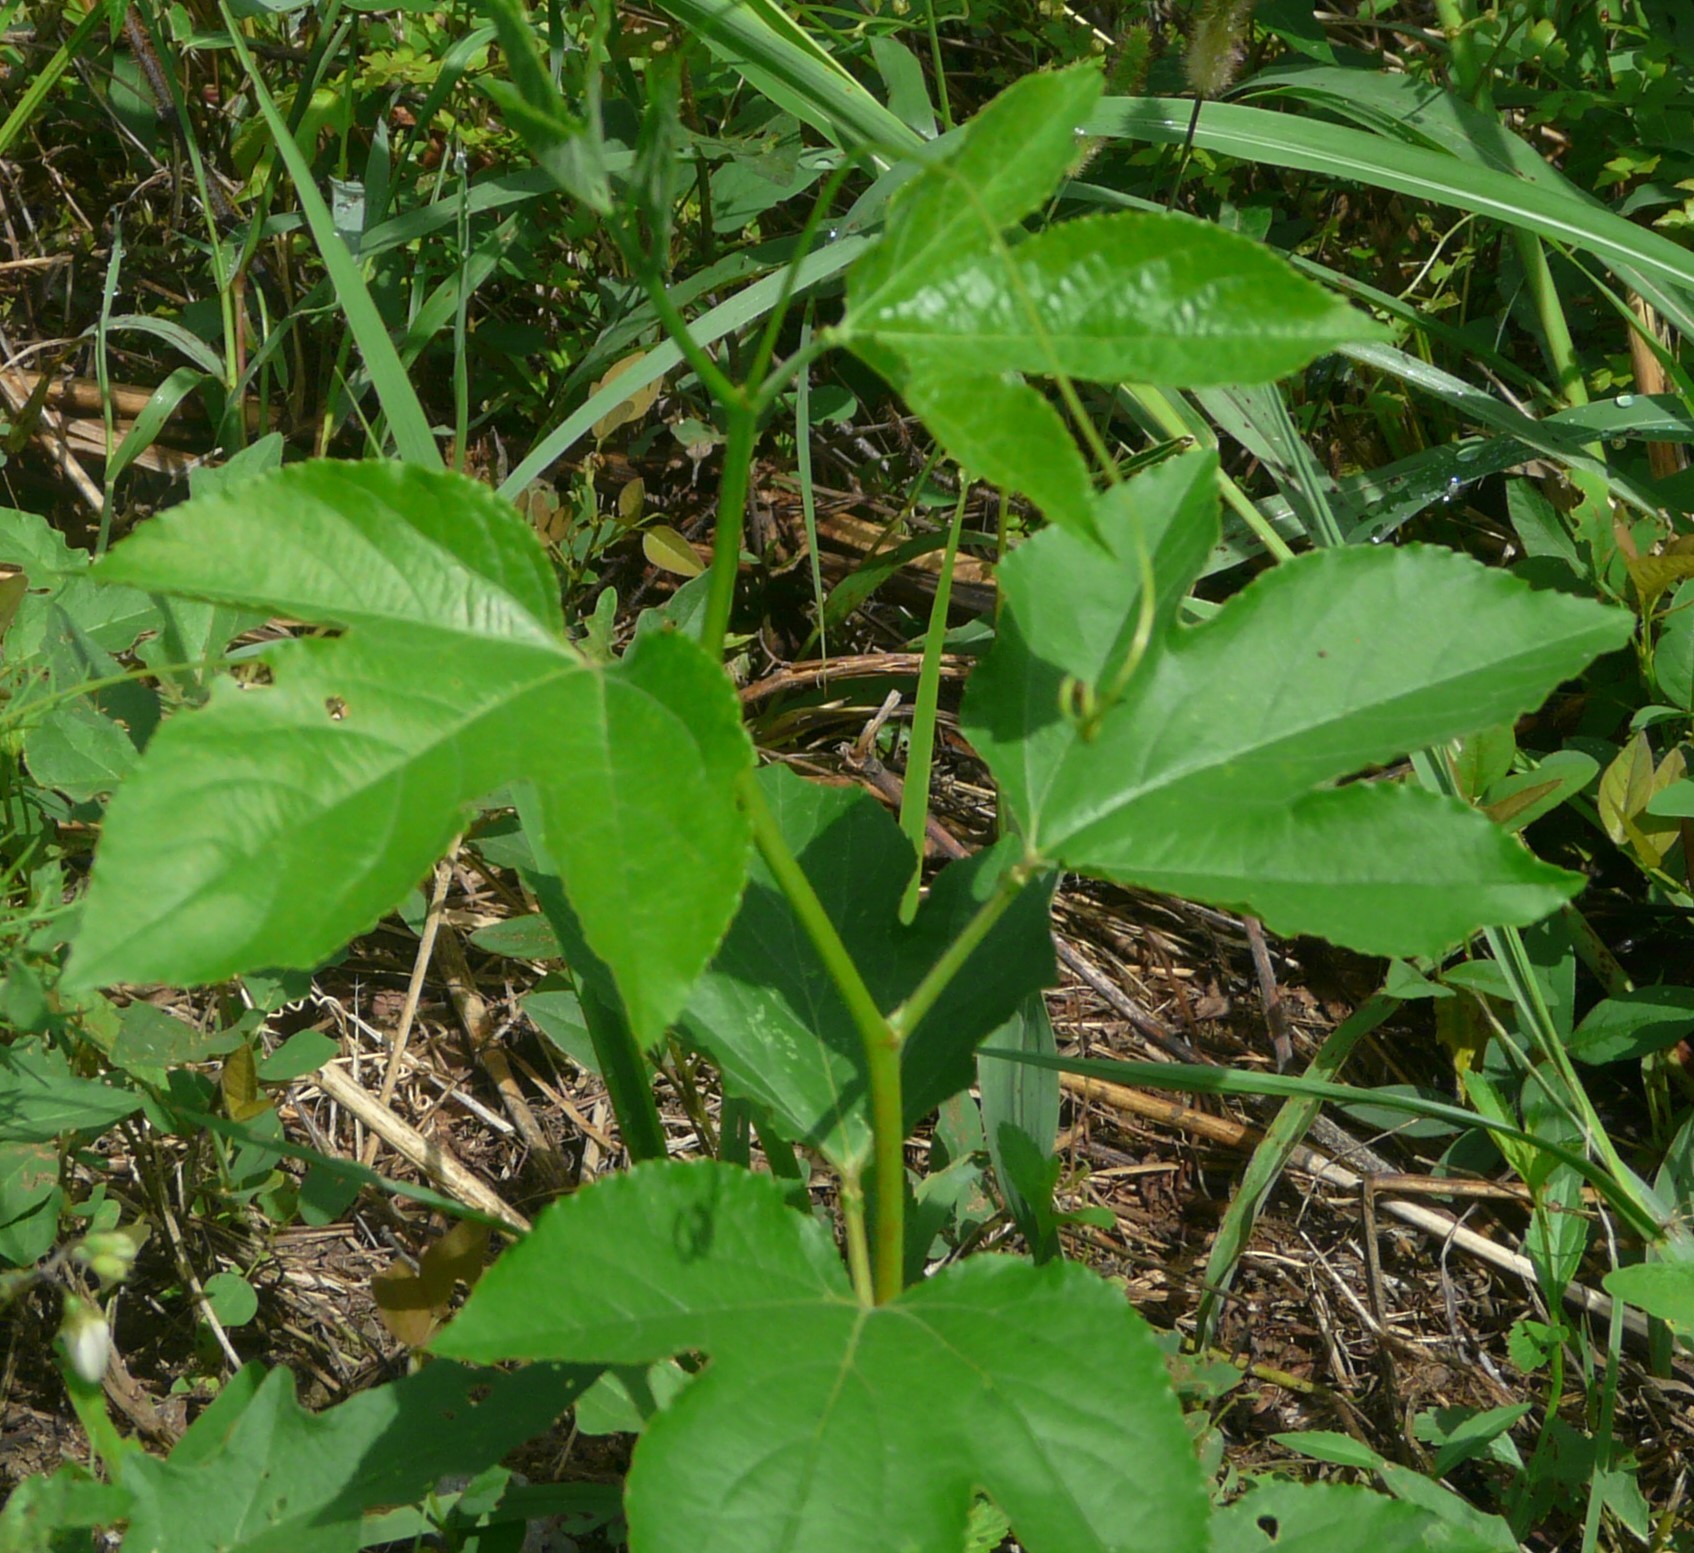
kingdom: Plantae
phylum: Tracheophyta
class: Magnoliopsida
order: Malpighiales
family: Passifloraceae
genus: Passiflora
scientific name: Passiflora incarnata
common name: Apricot-vine
